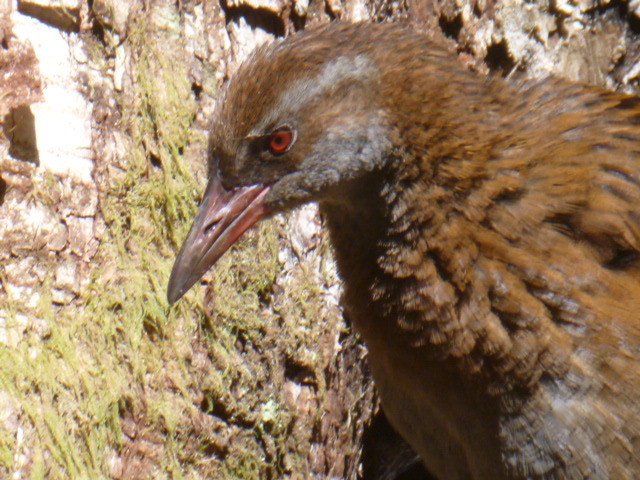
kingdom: Animalia
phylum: Chordata
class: Aves
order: Gruiformes
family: Rallidae
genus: Gallirallus
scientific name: Gallirallus australis
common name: Weka
